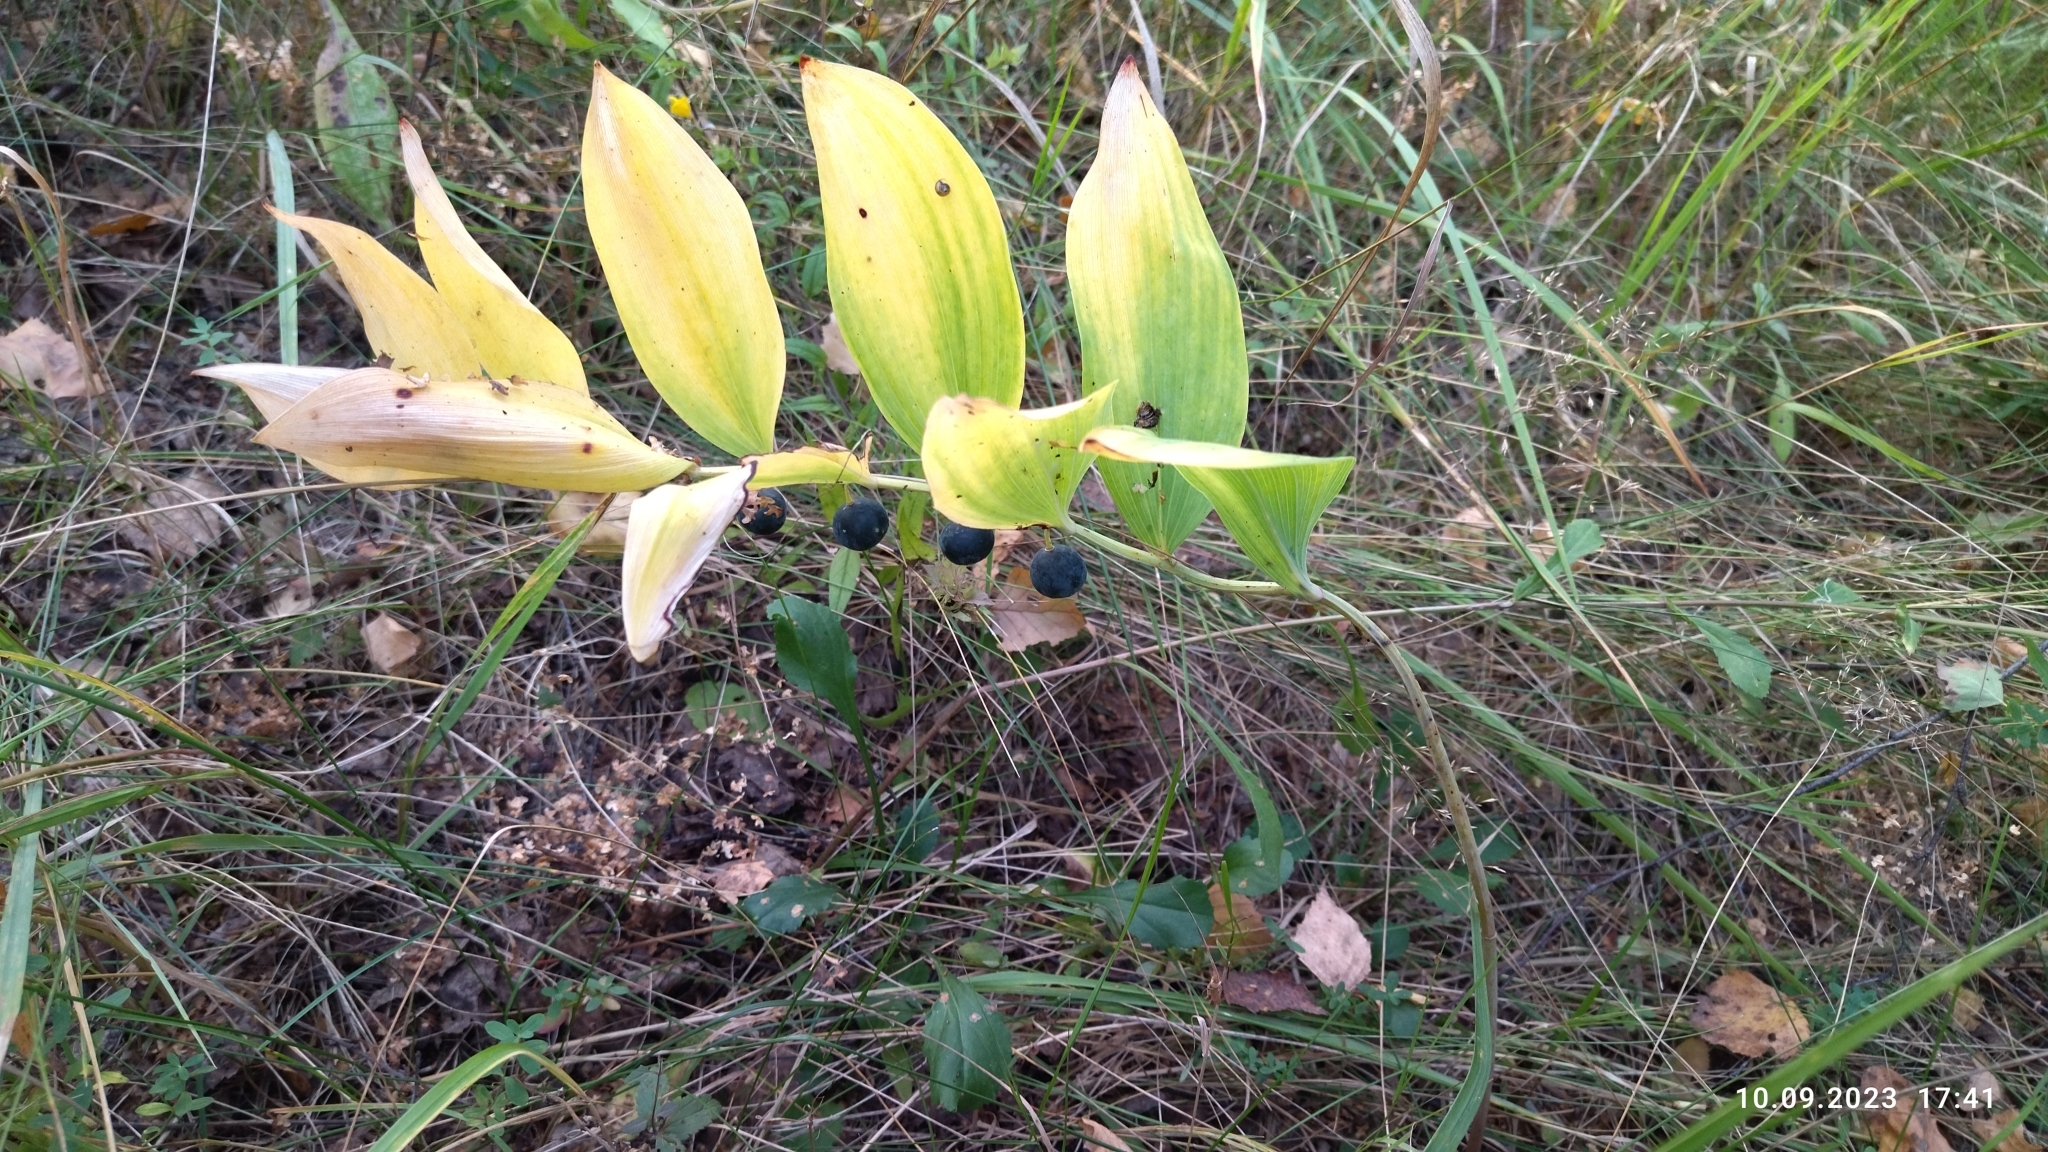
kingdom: Plantae
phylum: Tracheophyta
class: Liliopsida
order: Asparagales
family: Asparagaceae
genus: Polygonatum
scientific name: Polygonatum odoratum
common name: Angular solomon's-seal
